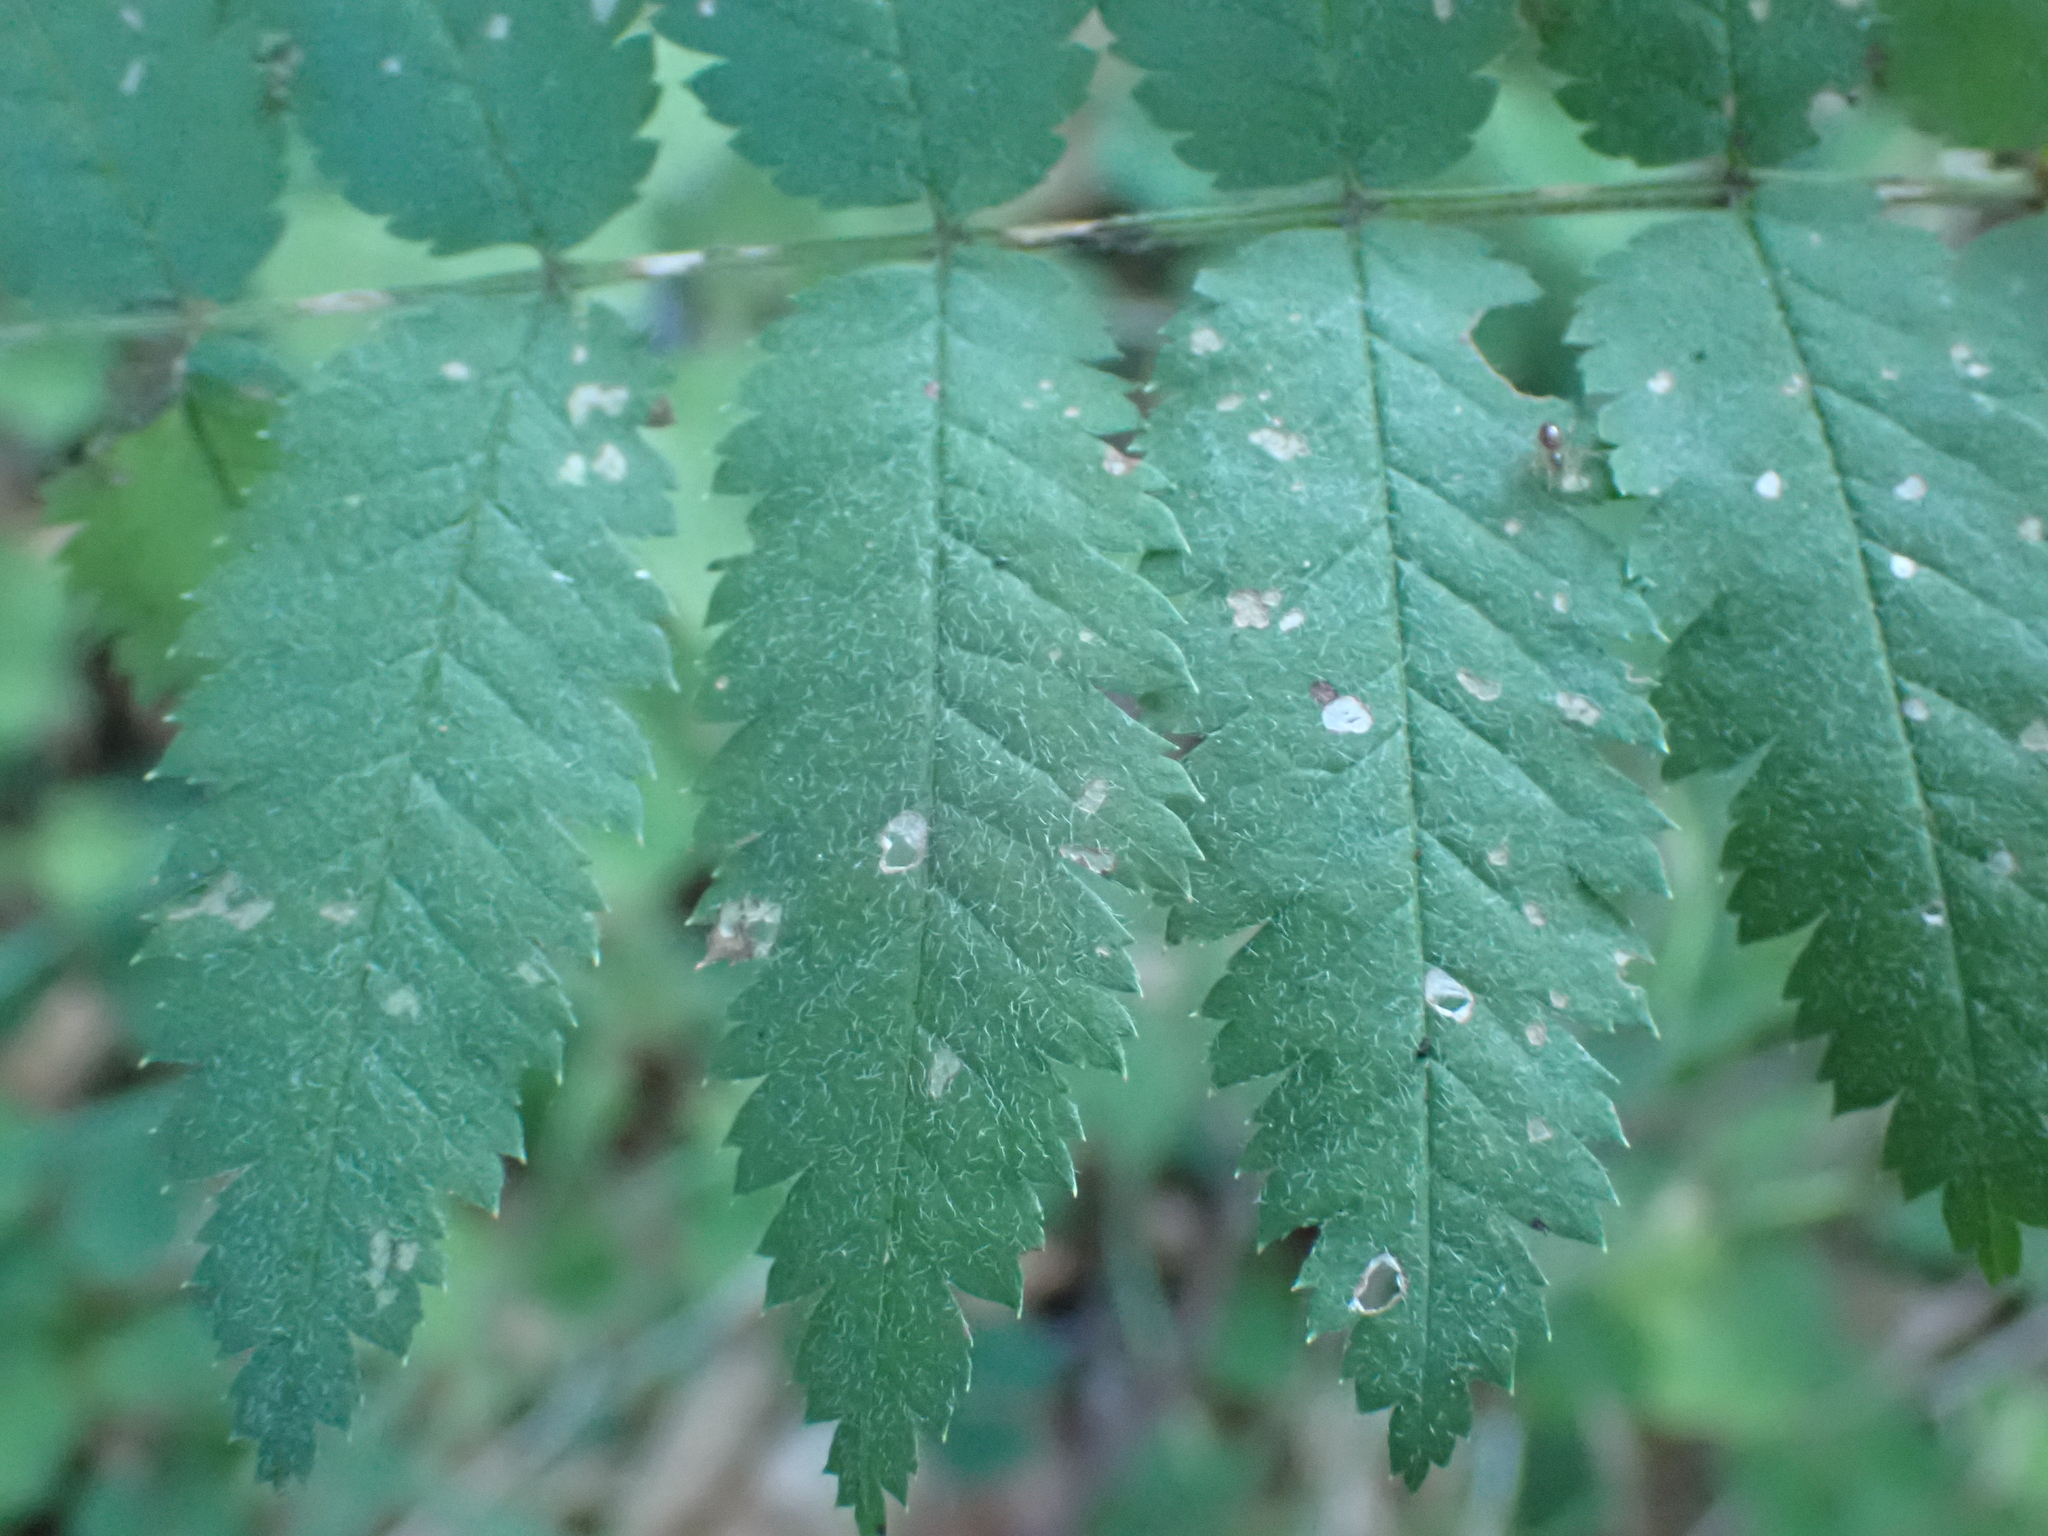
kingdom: Plantae
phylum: Tracheophyta
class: Magnoliopsida
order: Rosales
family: Rosaceae
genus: Sorbus
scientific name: Sorbus aucuparia
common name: Rowan
